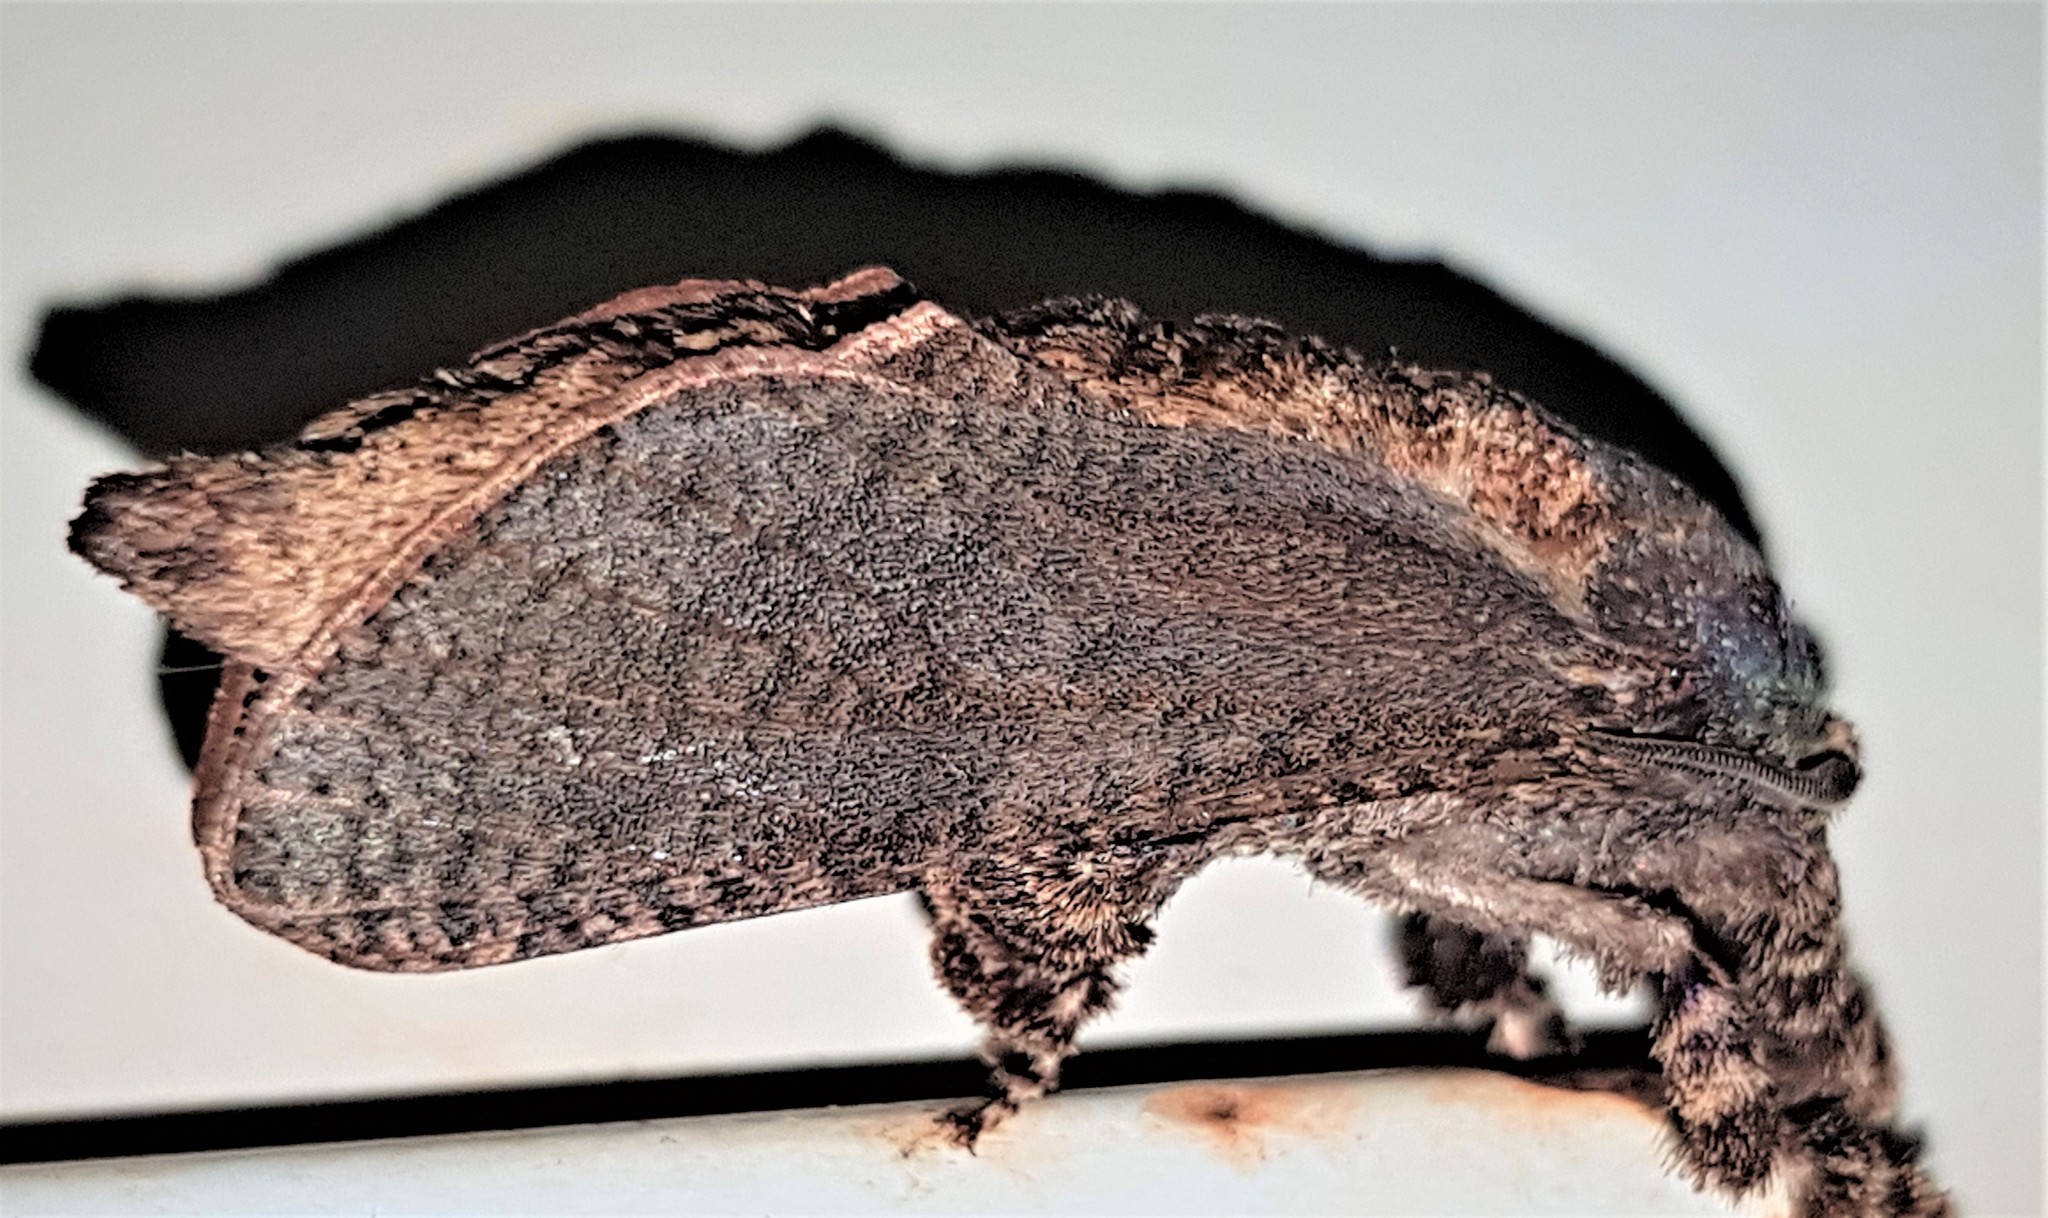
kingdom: Animalia
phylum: Arthropoda
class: Insecta
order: Lepidoptera
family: Cossidae
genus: Givira
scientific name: Givira arbeloides
